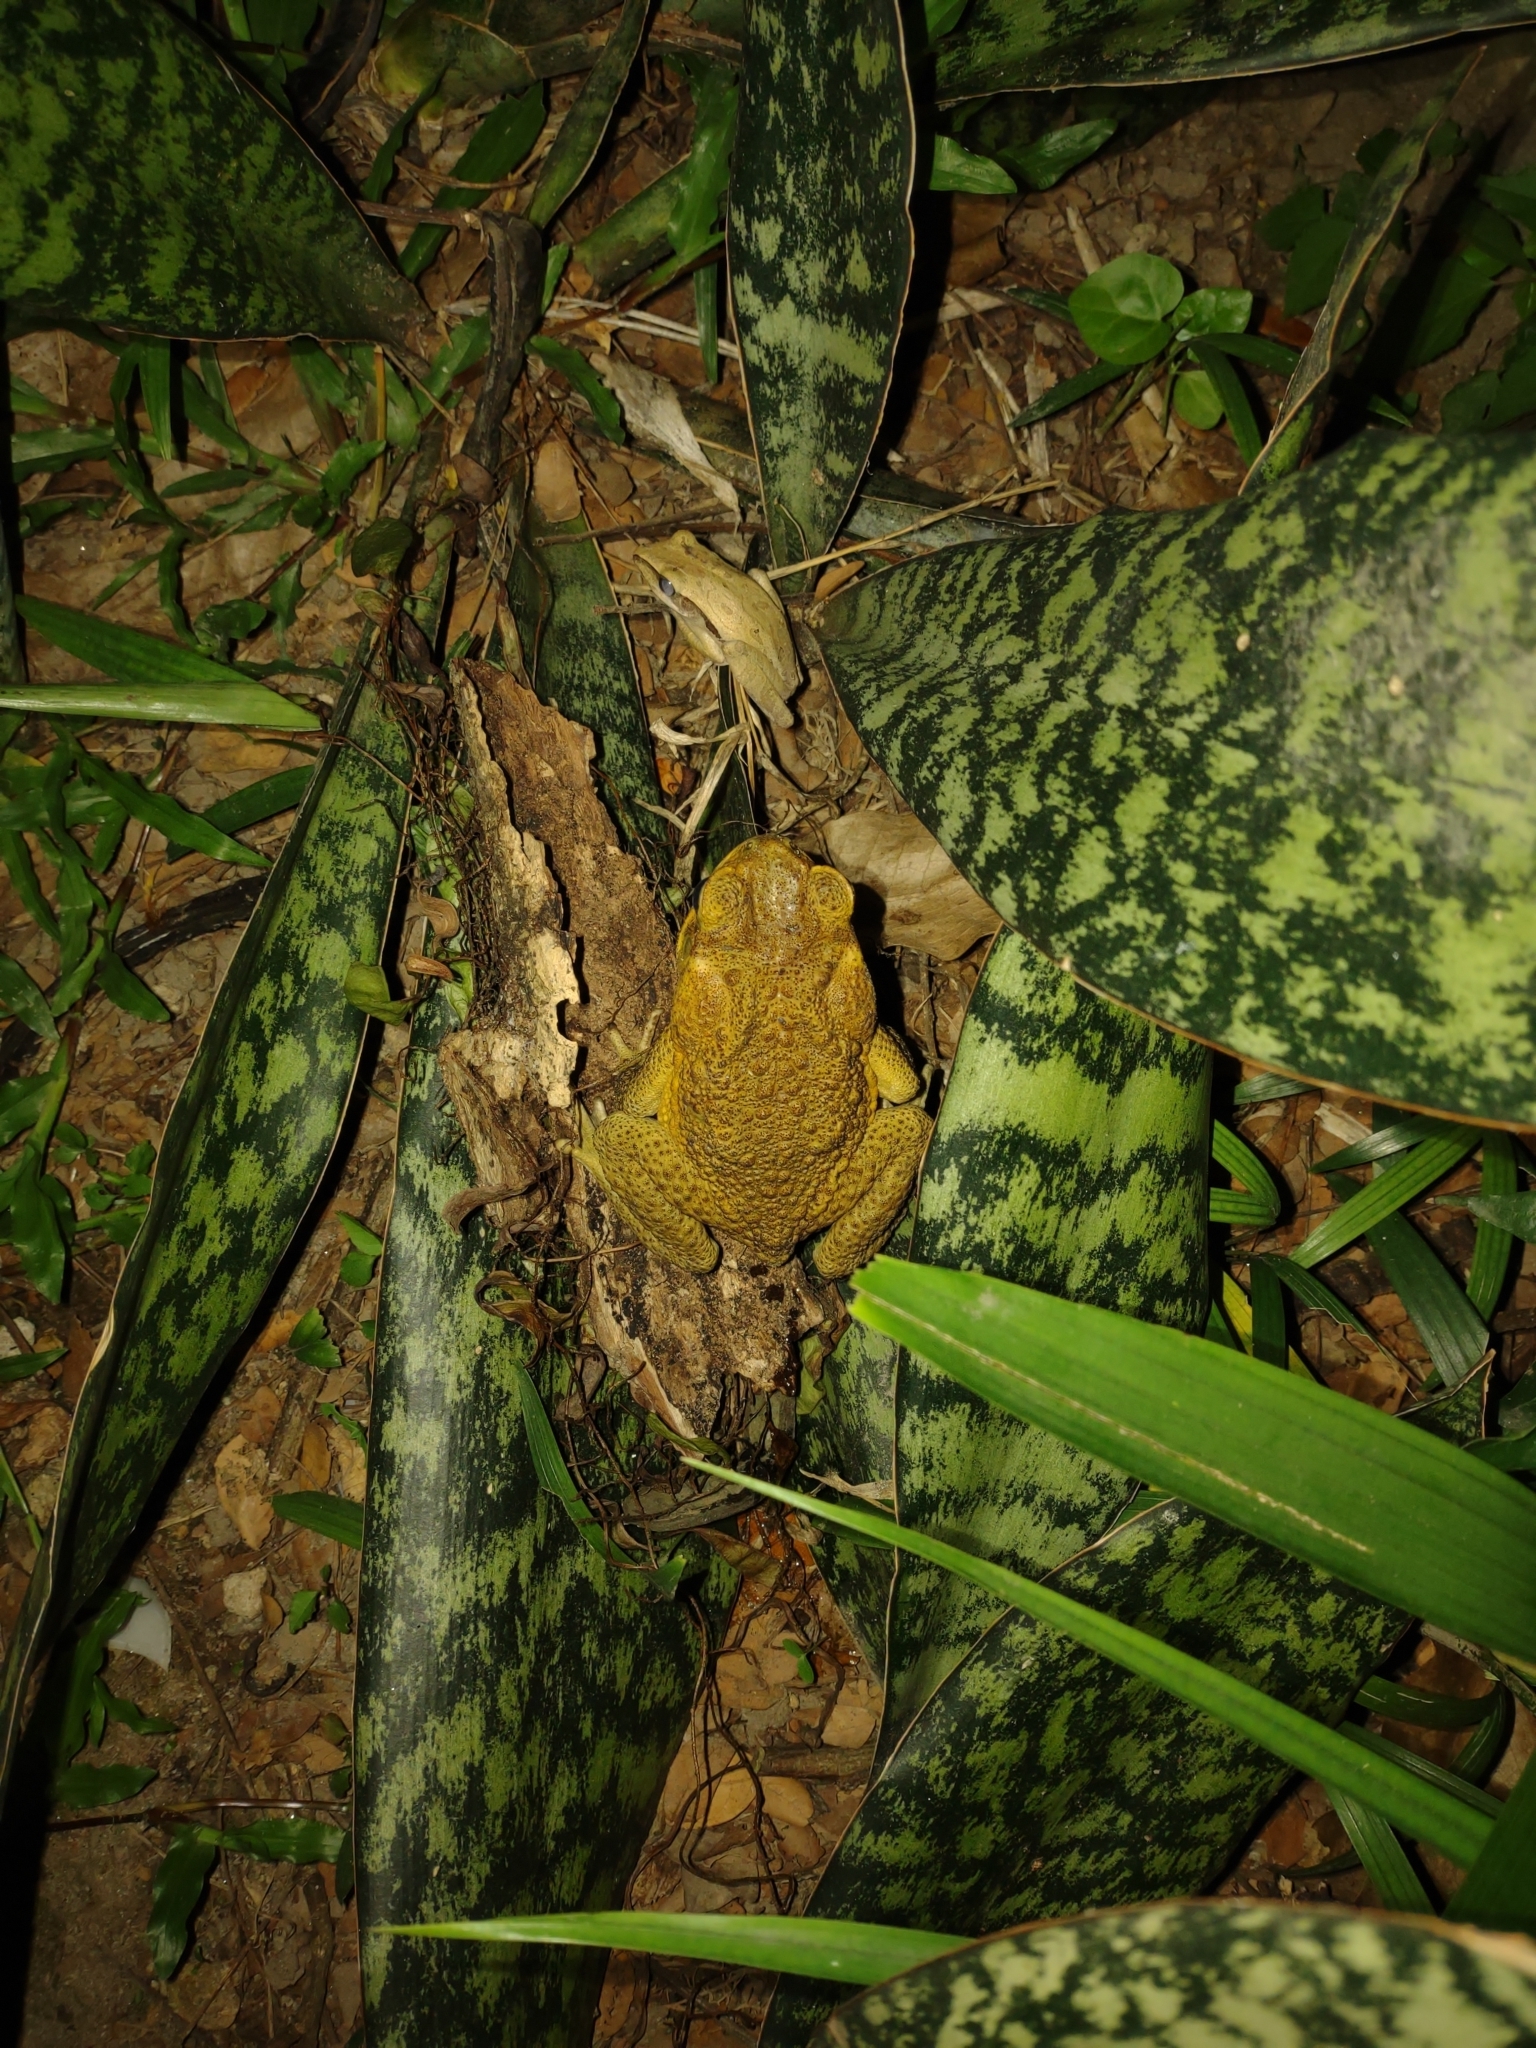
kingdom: Animalia
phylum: Chordata
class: Amphibia
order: Anura
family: Bufonidae
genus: Rhinella
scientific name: Rhinella marina
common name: Cane toad
